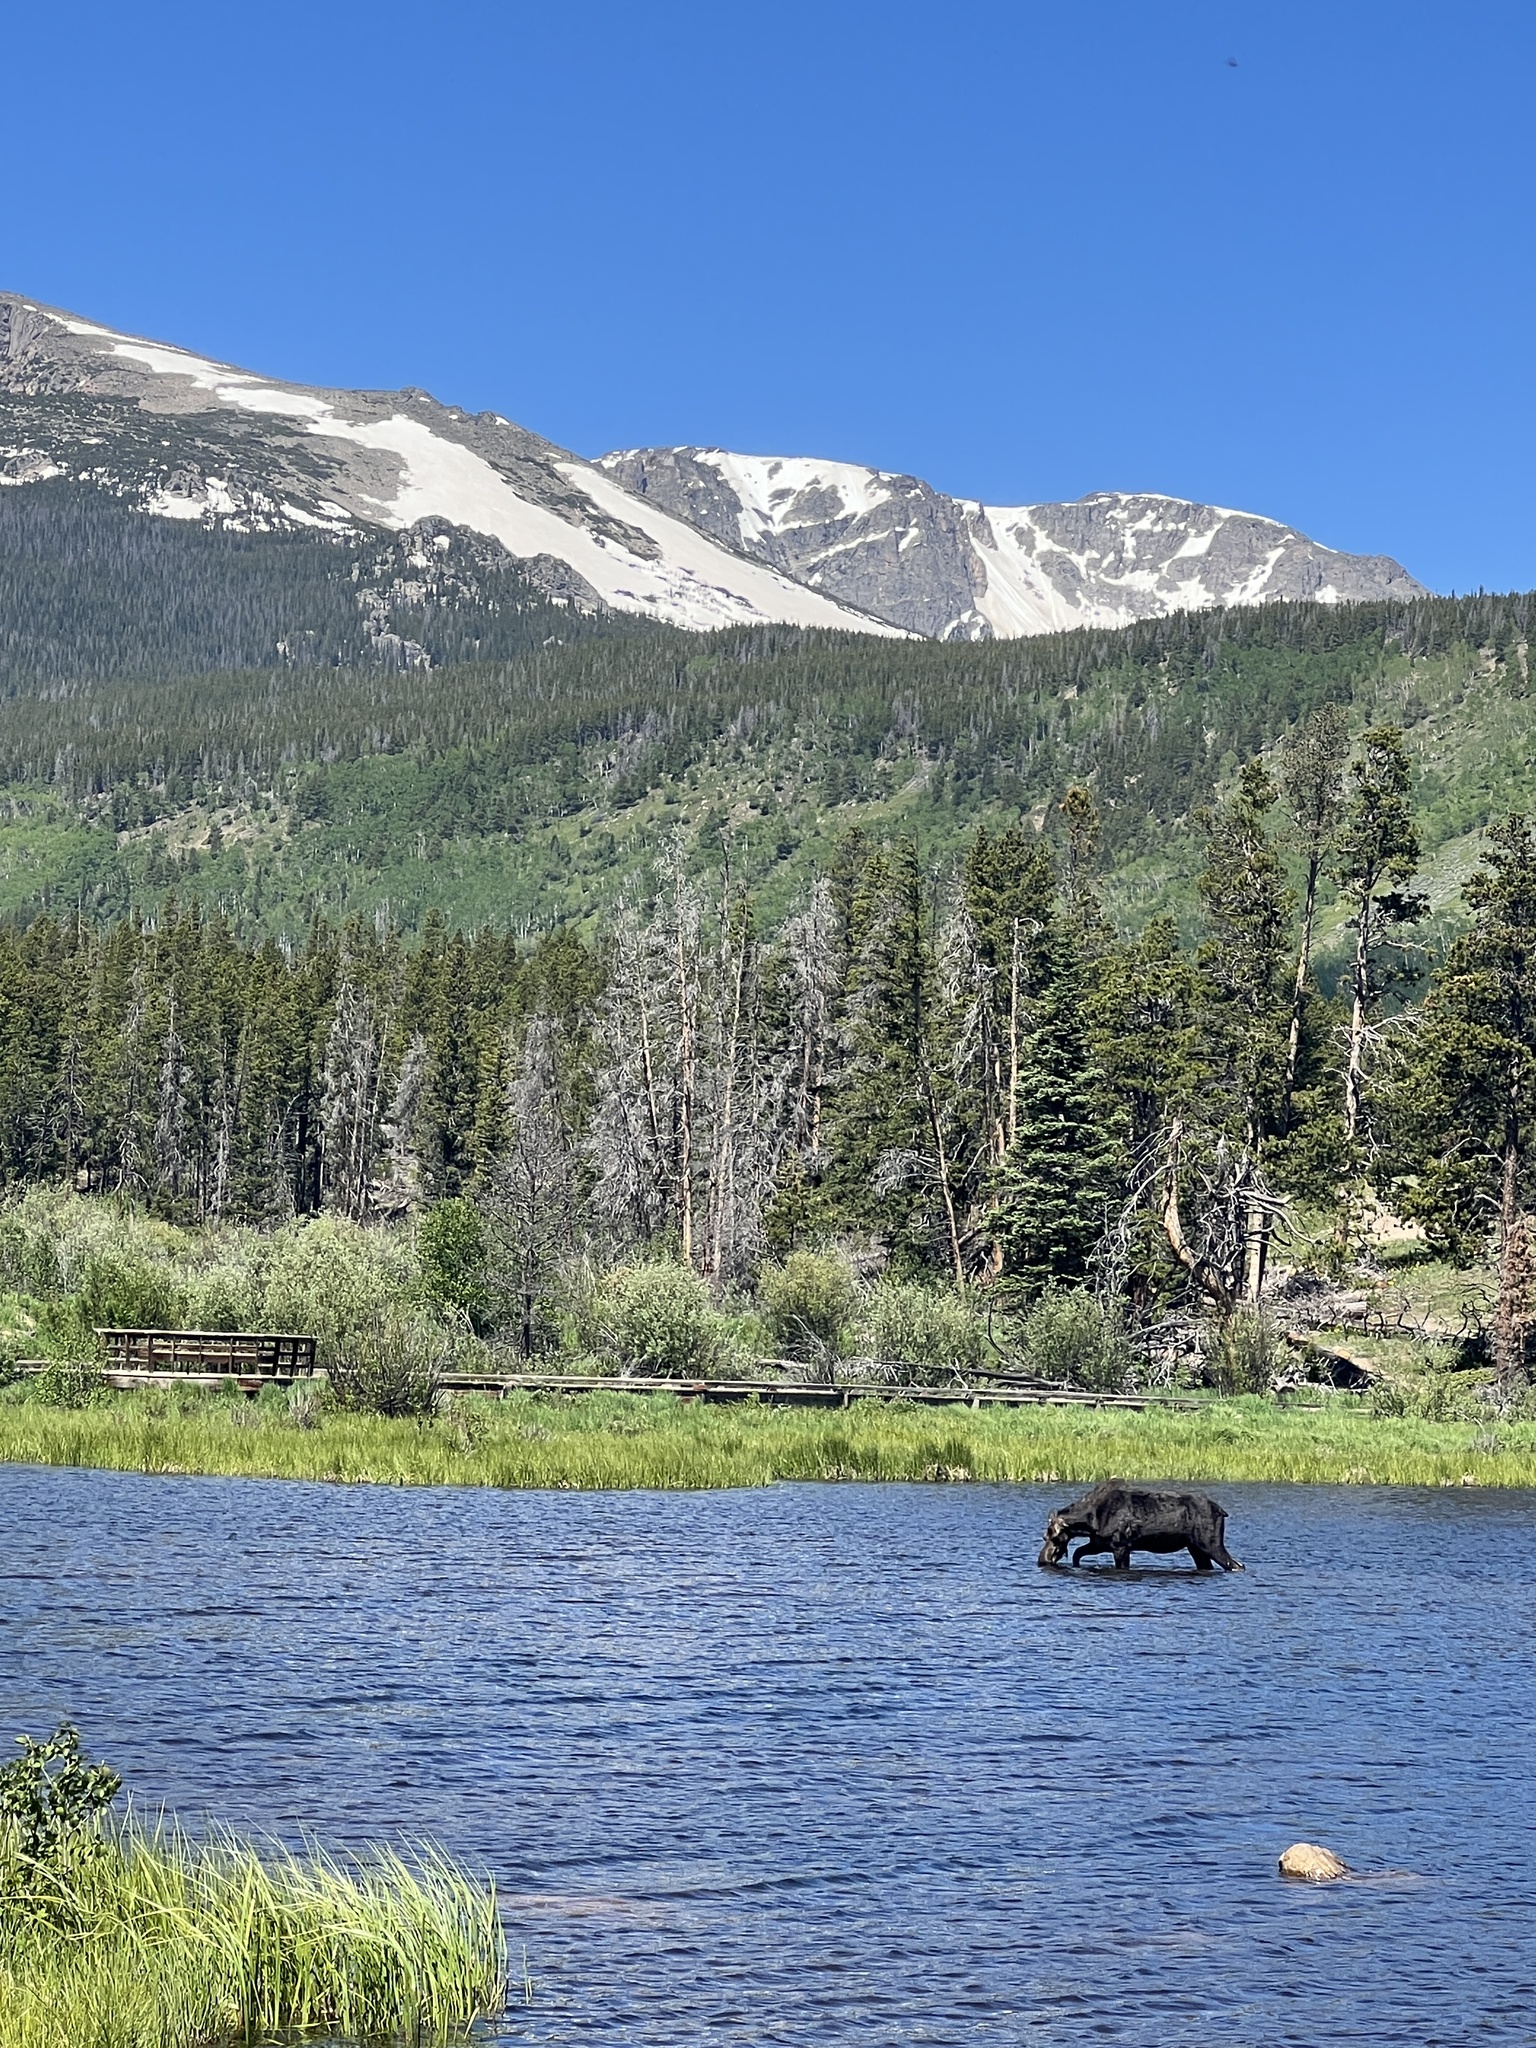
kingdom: Animalia
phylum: Chordata
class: Mammalia
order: Artiodactyla
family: Cervidae
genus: Alces
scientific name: Alces alces
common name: Moose
